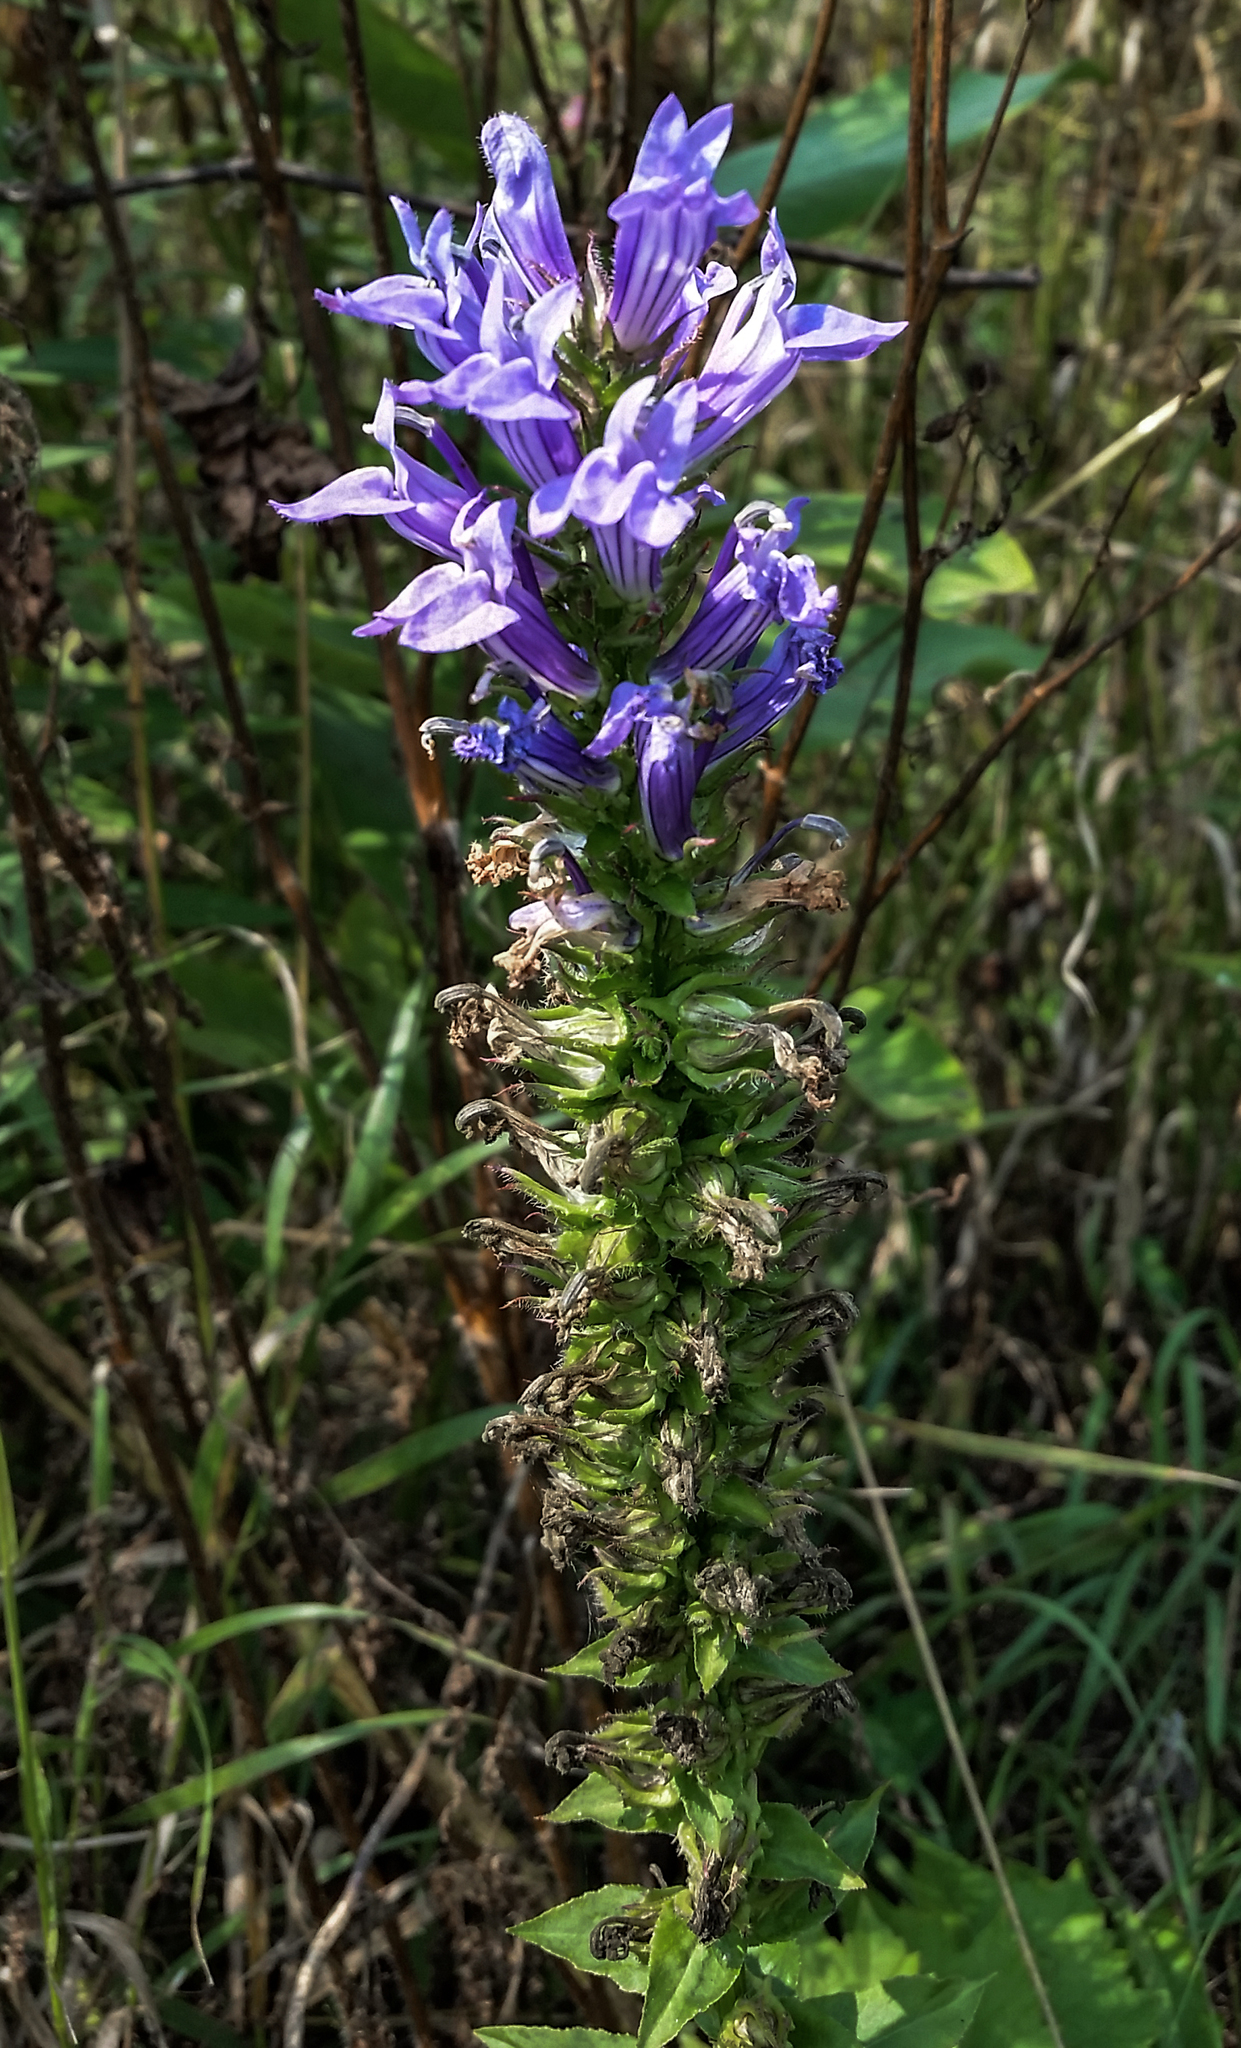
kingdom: Plantae
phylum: Tracheophyta
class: Magnoliopsida
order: Asterales
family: Campanulaceae
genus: Lobelia
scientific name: Lobelia siphilitica
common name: Great lobelia
